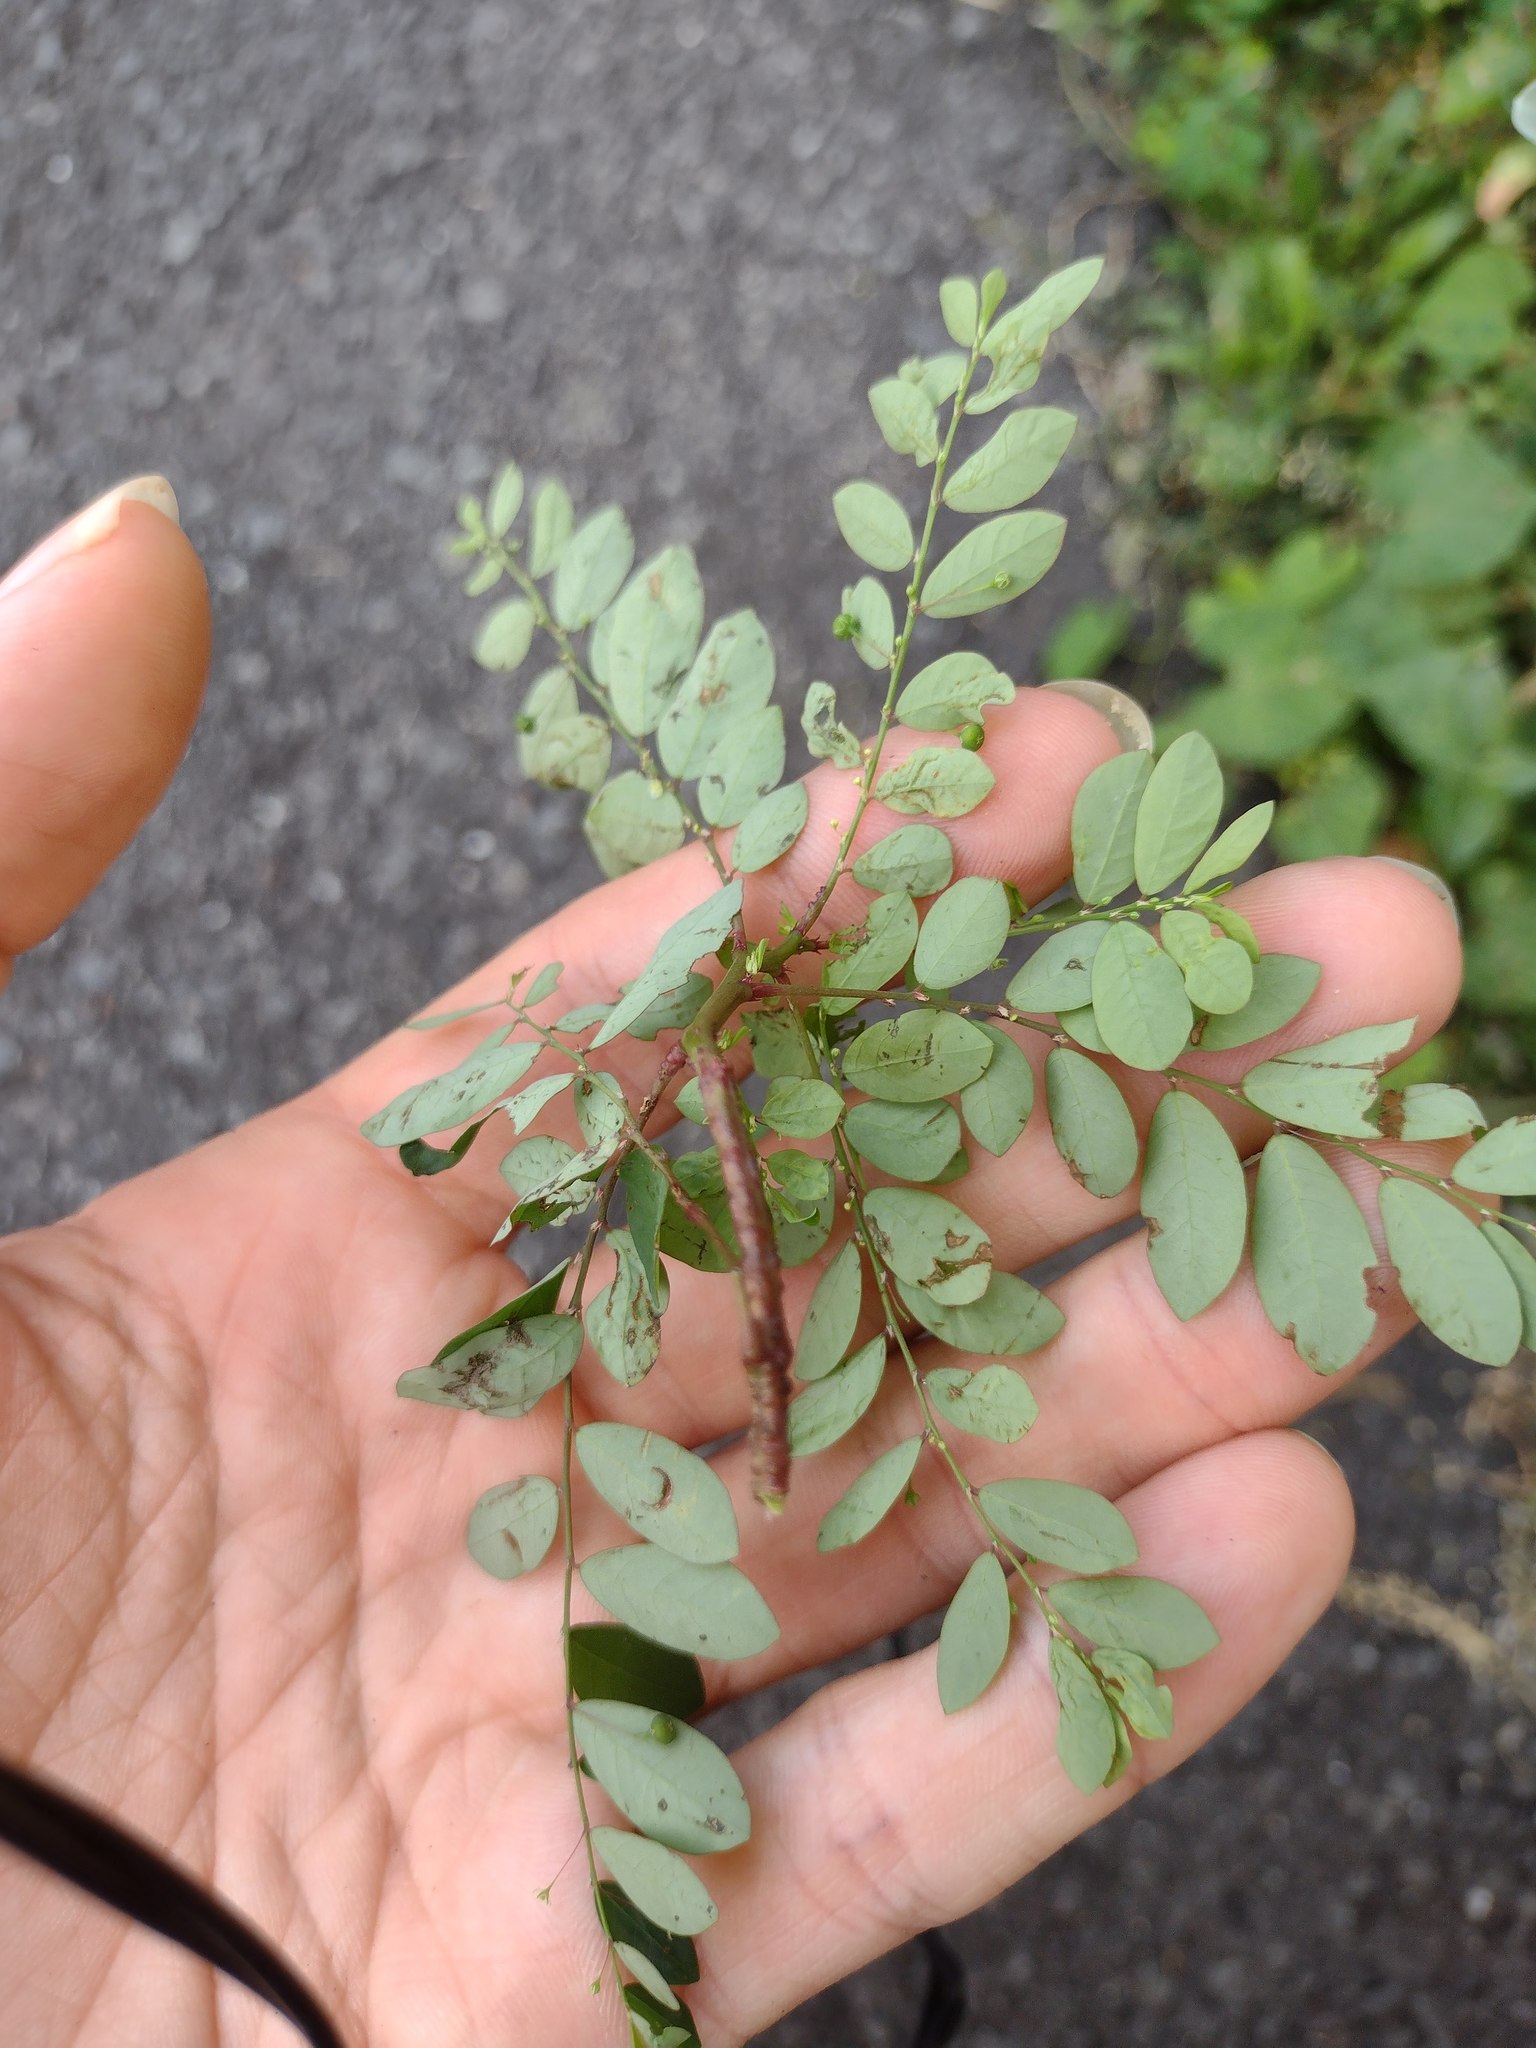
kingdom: Plantae
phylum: Tracheophyta
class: Magnoliopsida
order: Malpighiales
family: Phyllanthaceae
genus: Phyllanthus
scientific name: Phyllanthus tenellus
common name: Mascarene island leaf-flower
